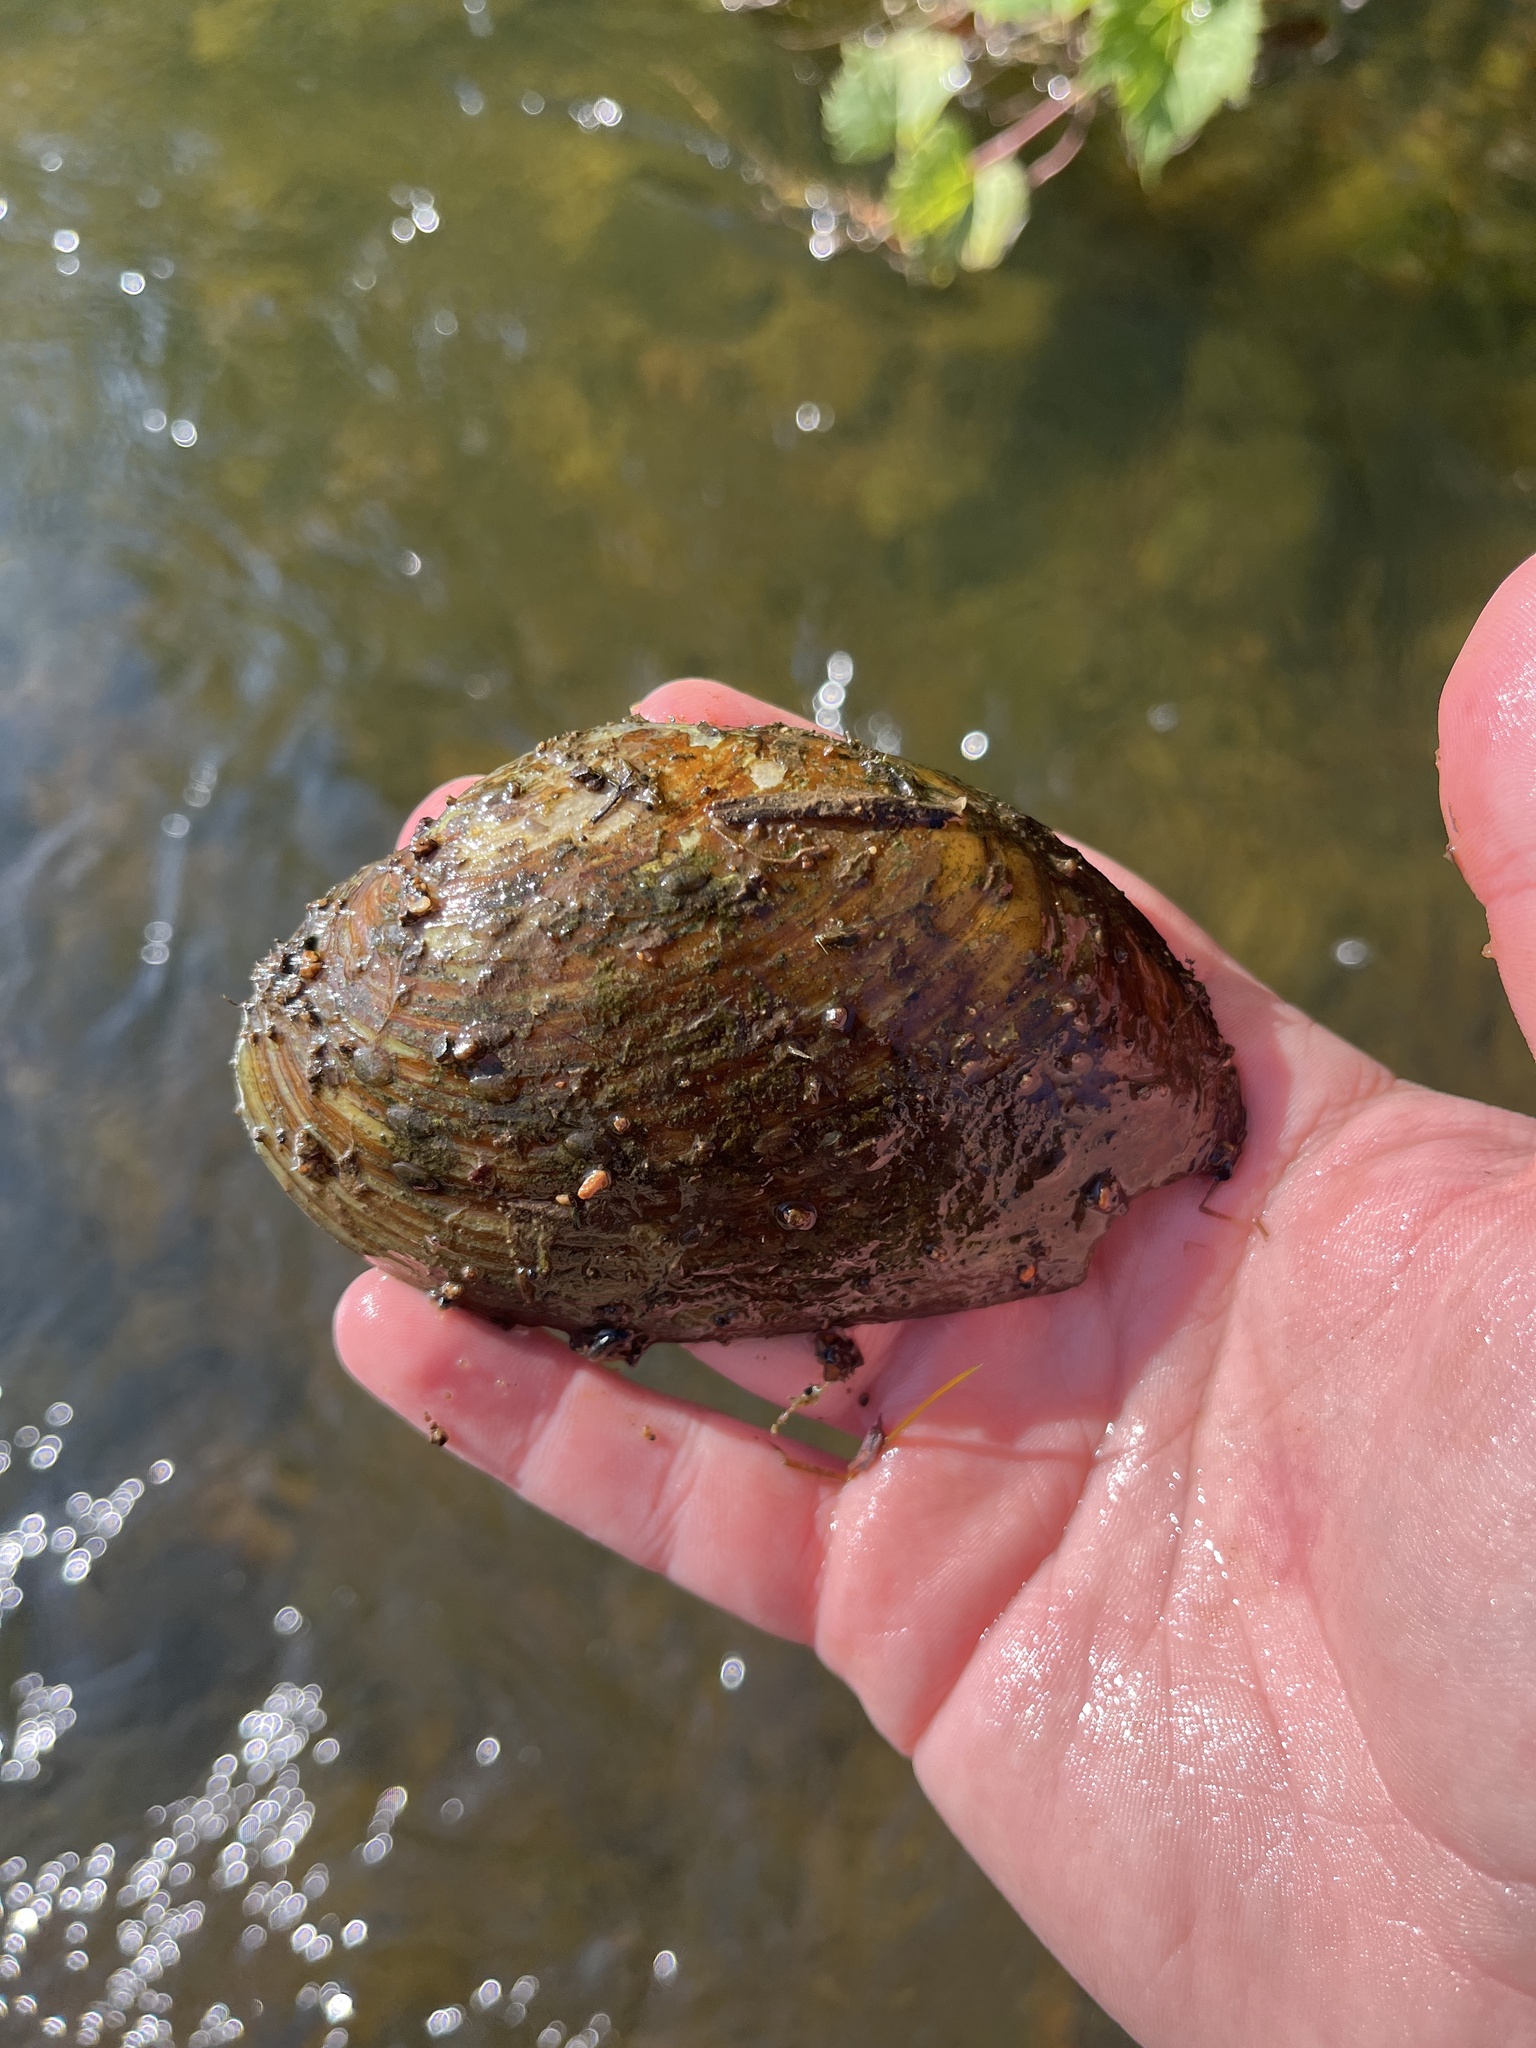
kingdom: Animalia
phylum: Mollusca
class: Bivalvia
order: Unionida
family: Unionidae
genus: Ptychobranchus
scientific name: Ptychobranchus fasciolaris
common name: Kidneyshell
